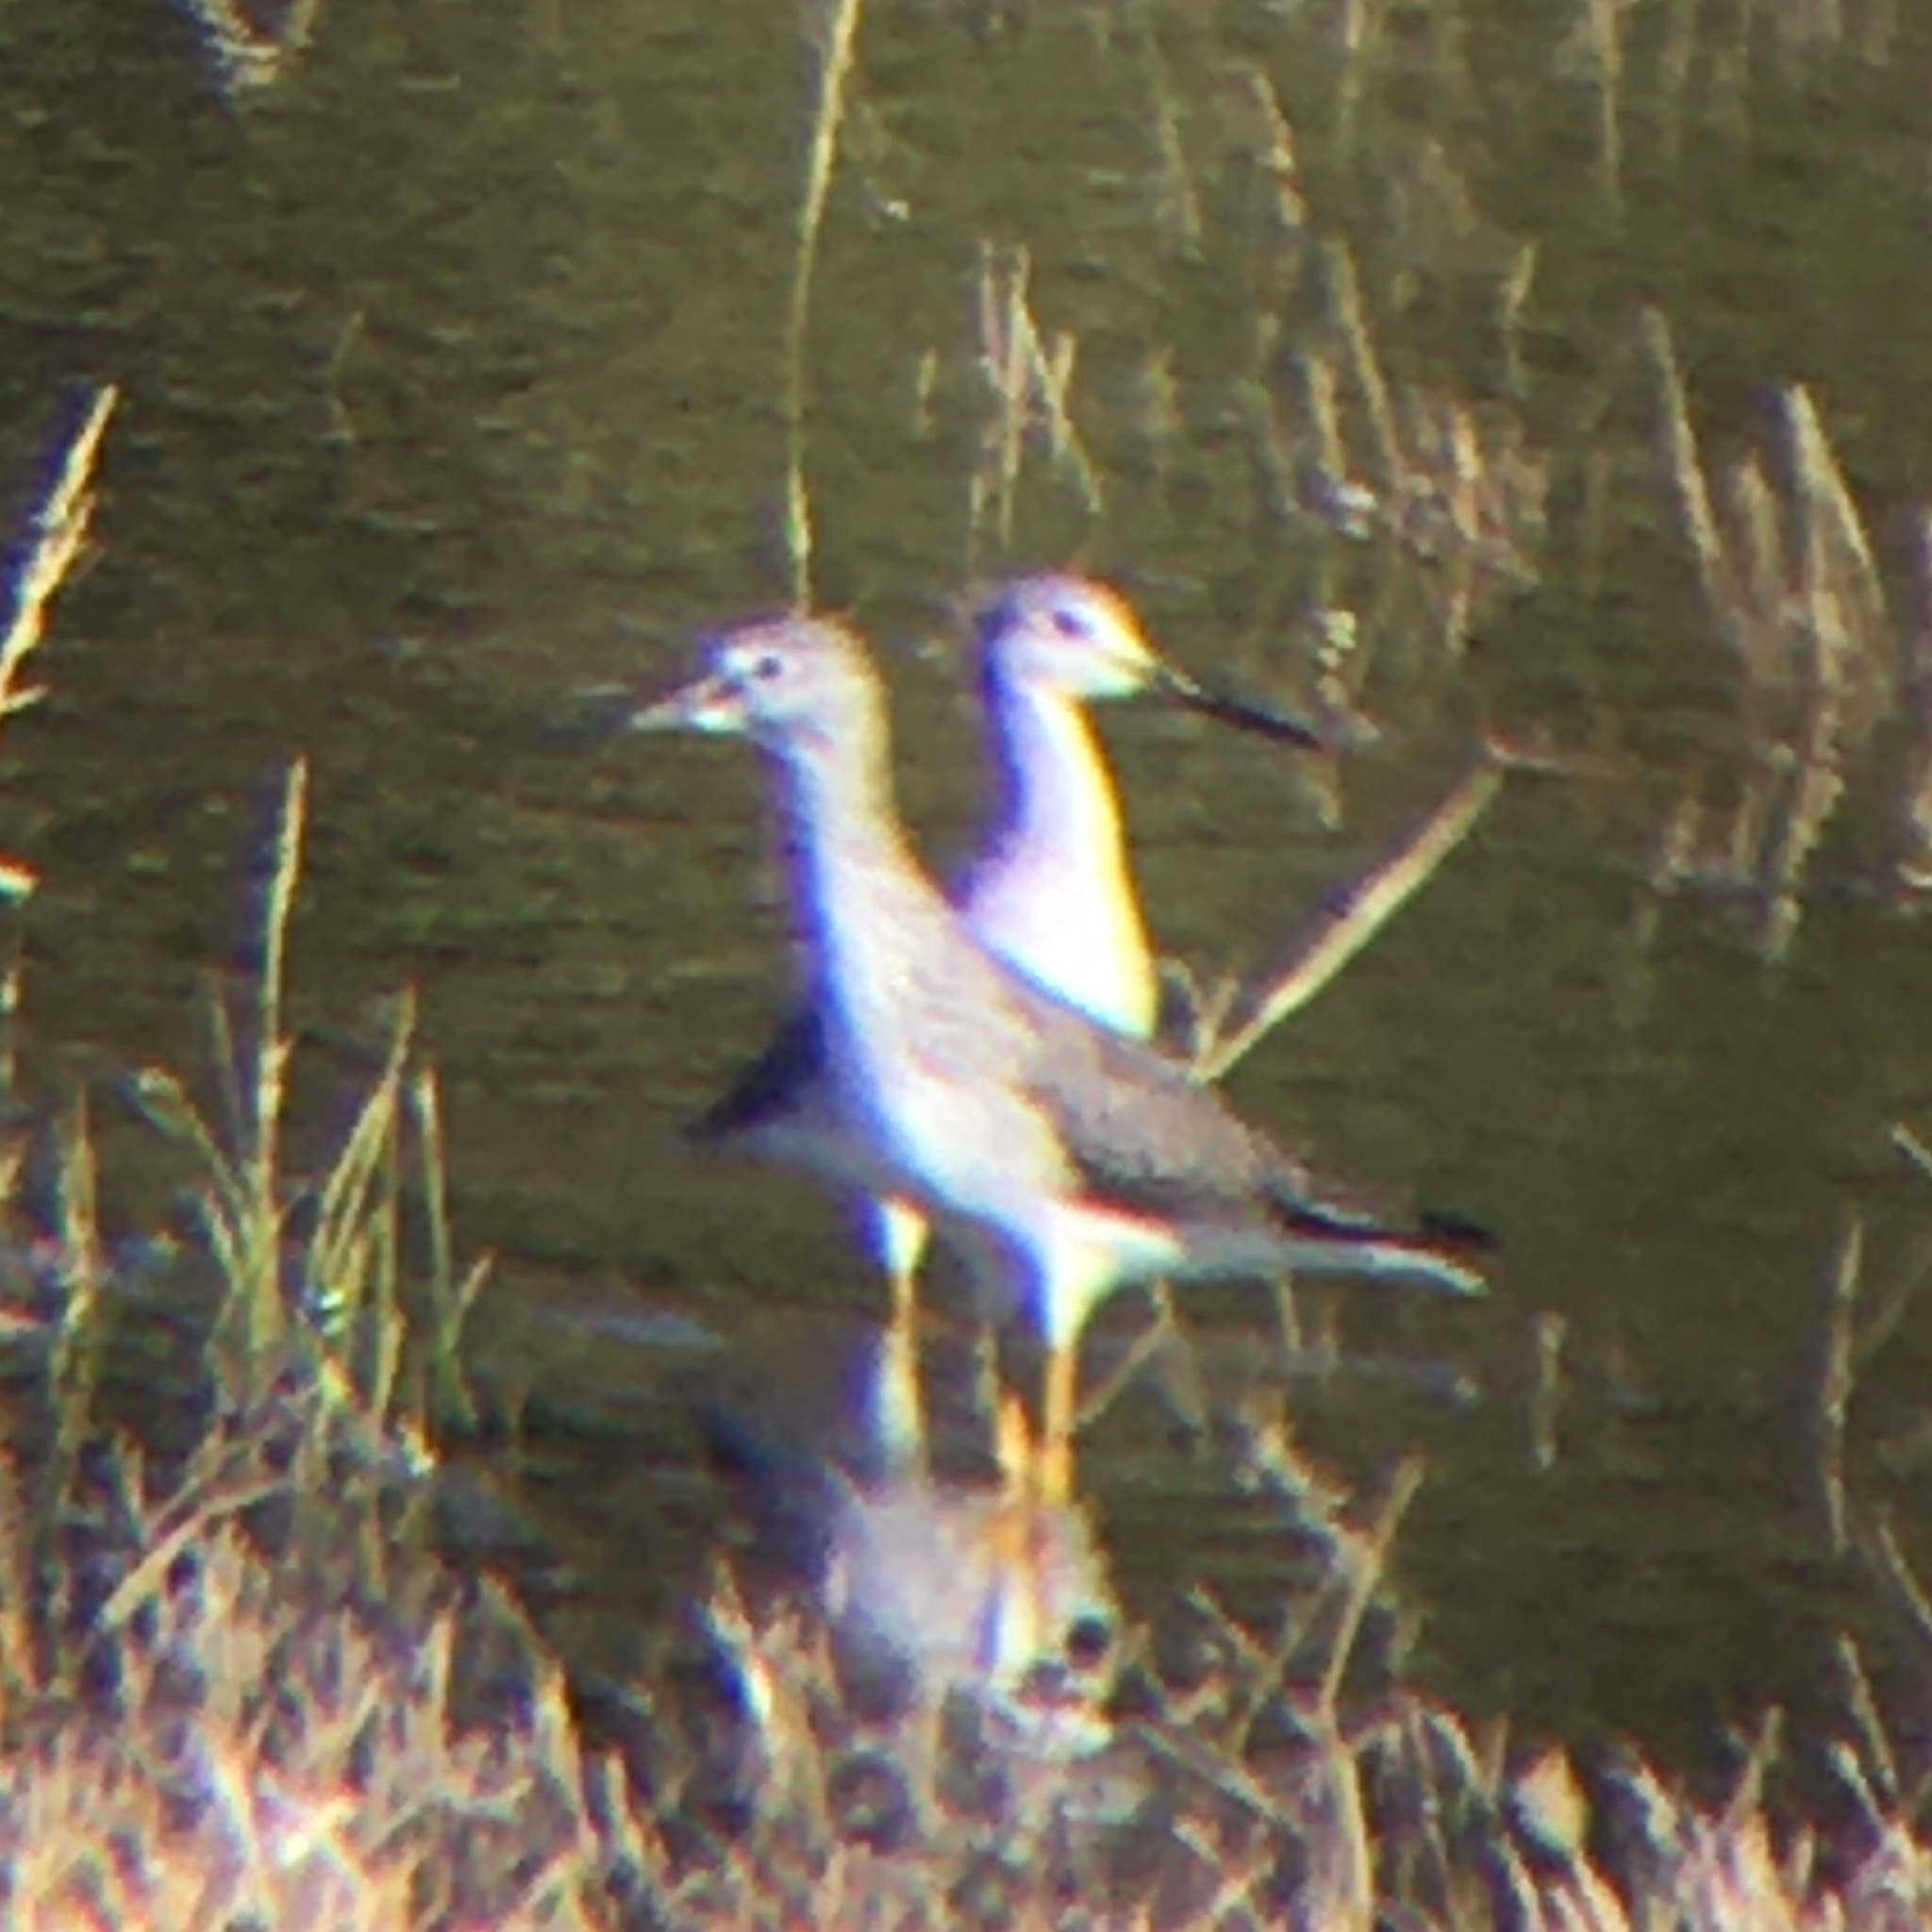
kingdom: Animalia
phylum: Chordata
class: Aves
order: Charadriiformes
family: Scolopacidae
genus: Tringa
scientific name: Tringa melanoleuca
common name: Greater yellowlegs
